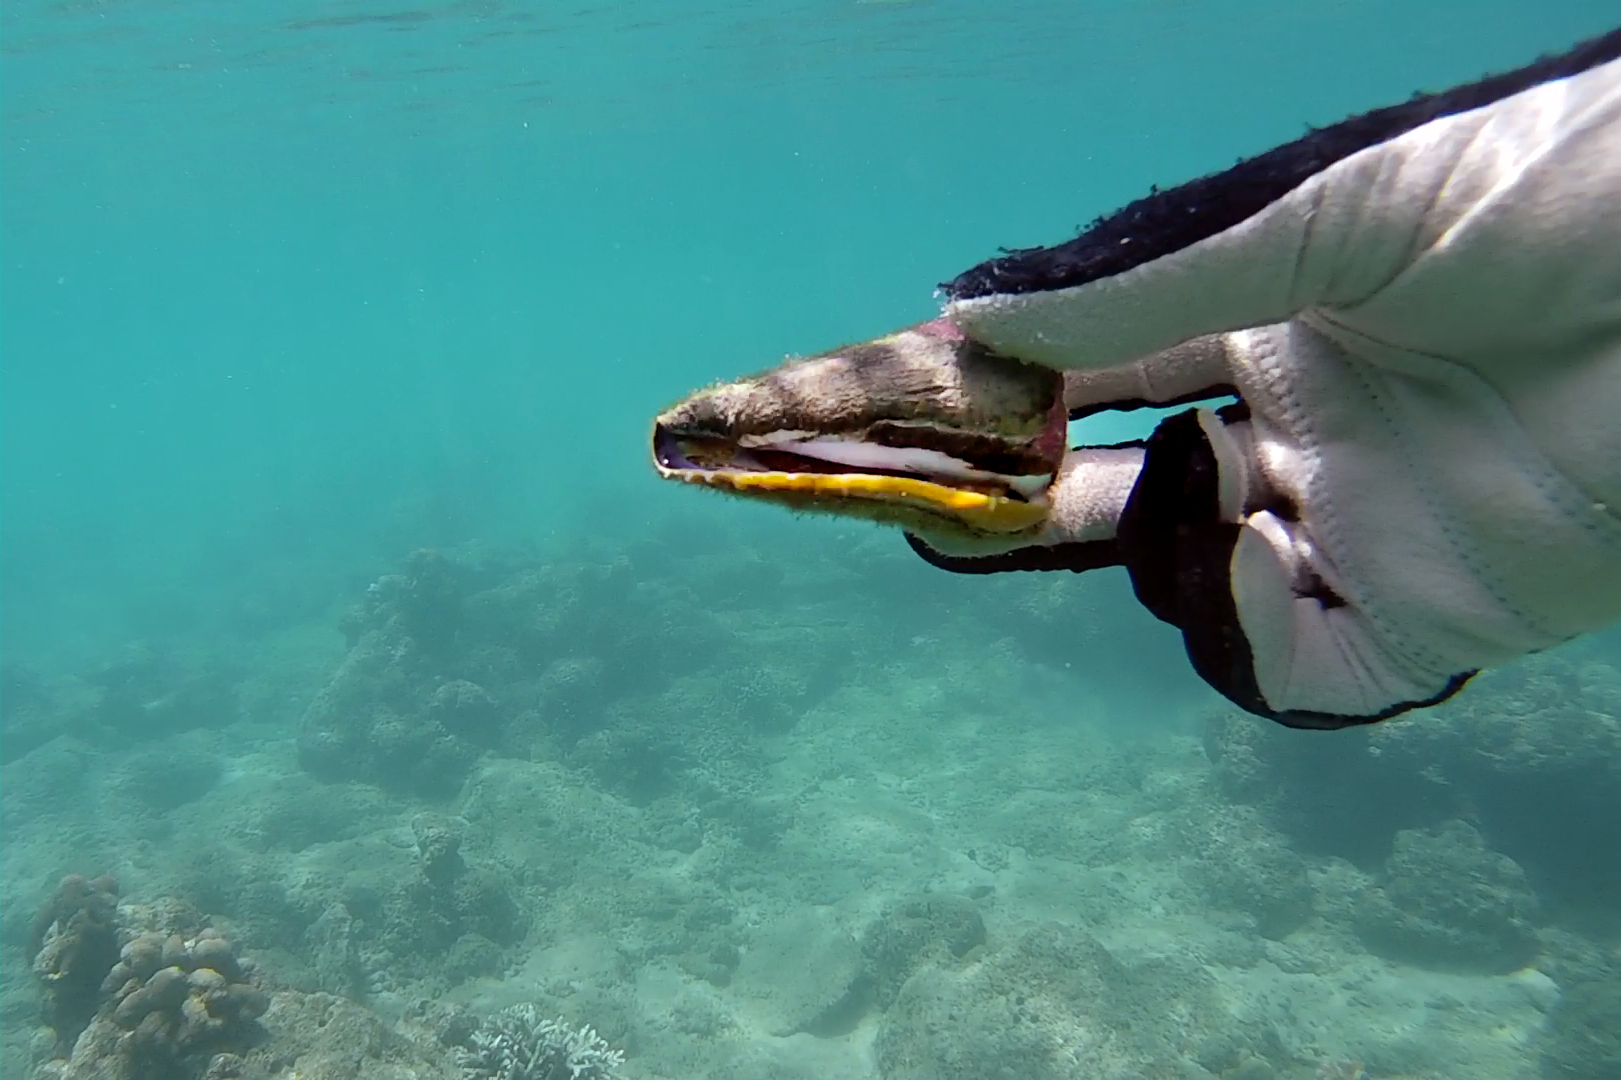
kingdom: Animalia
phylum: Mollusca
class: Gastropoda
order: Neogastropoda
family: Conidae
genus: Conus
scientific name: Conus distans
